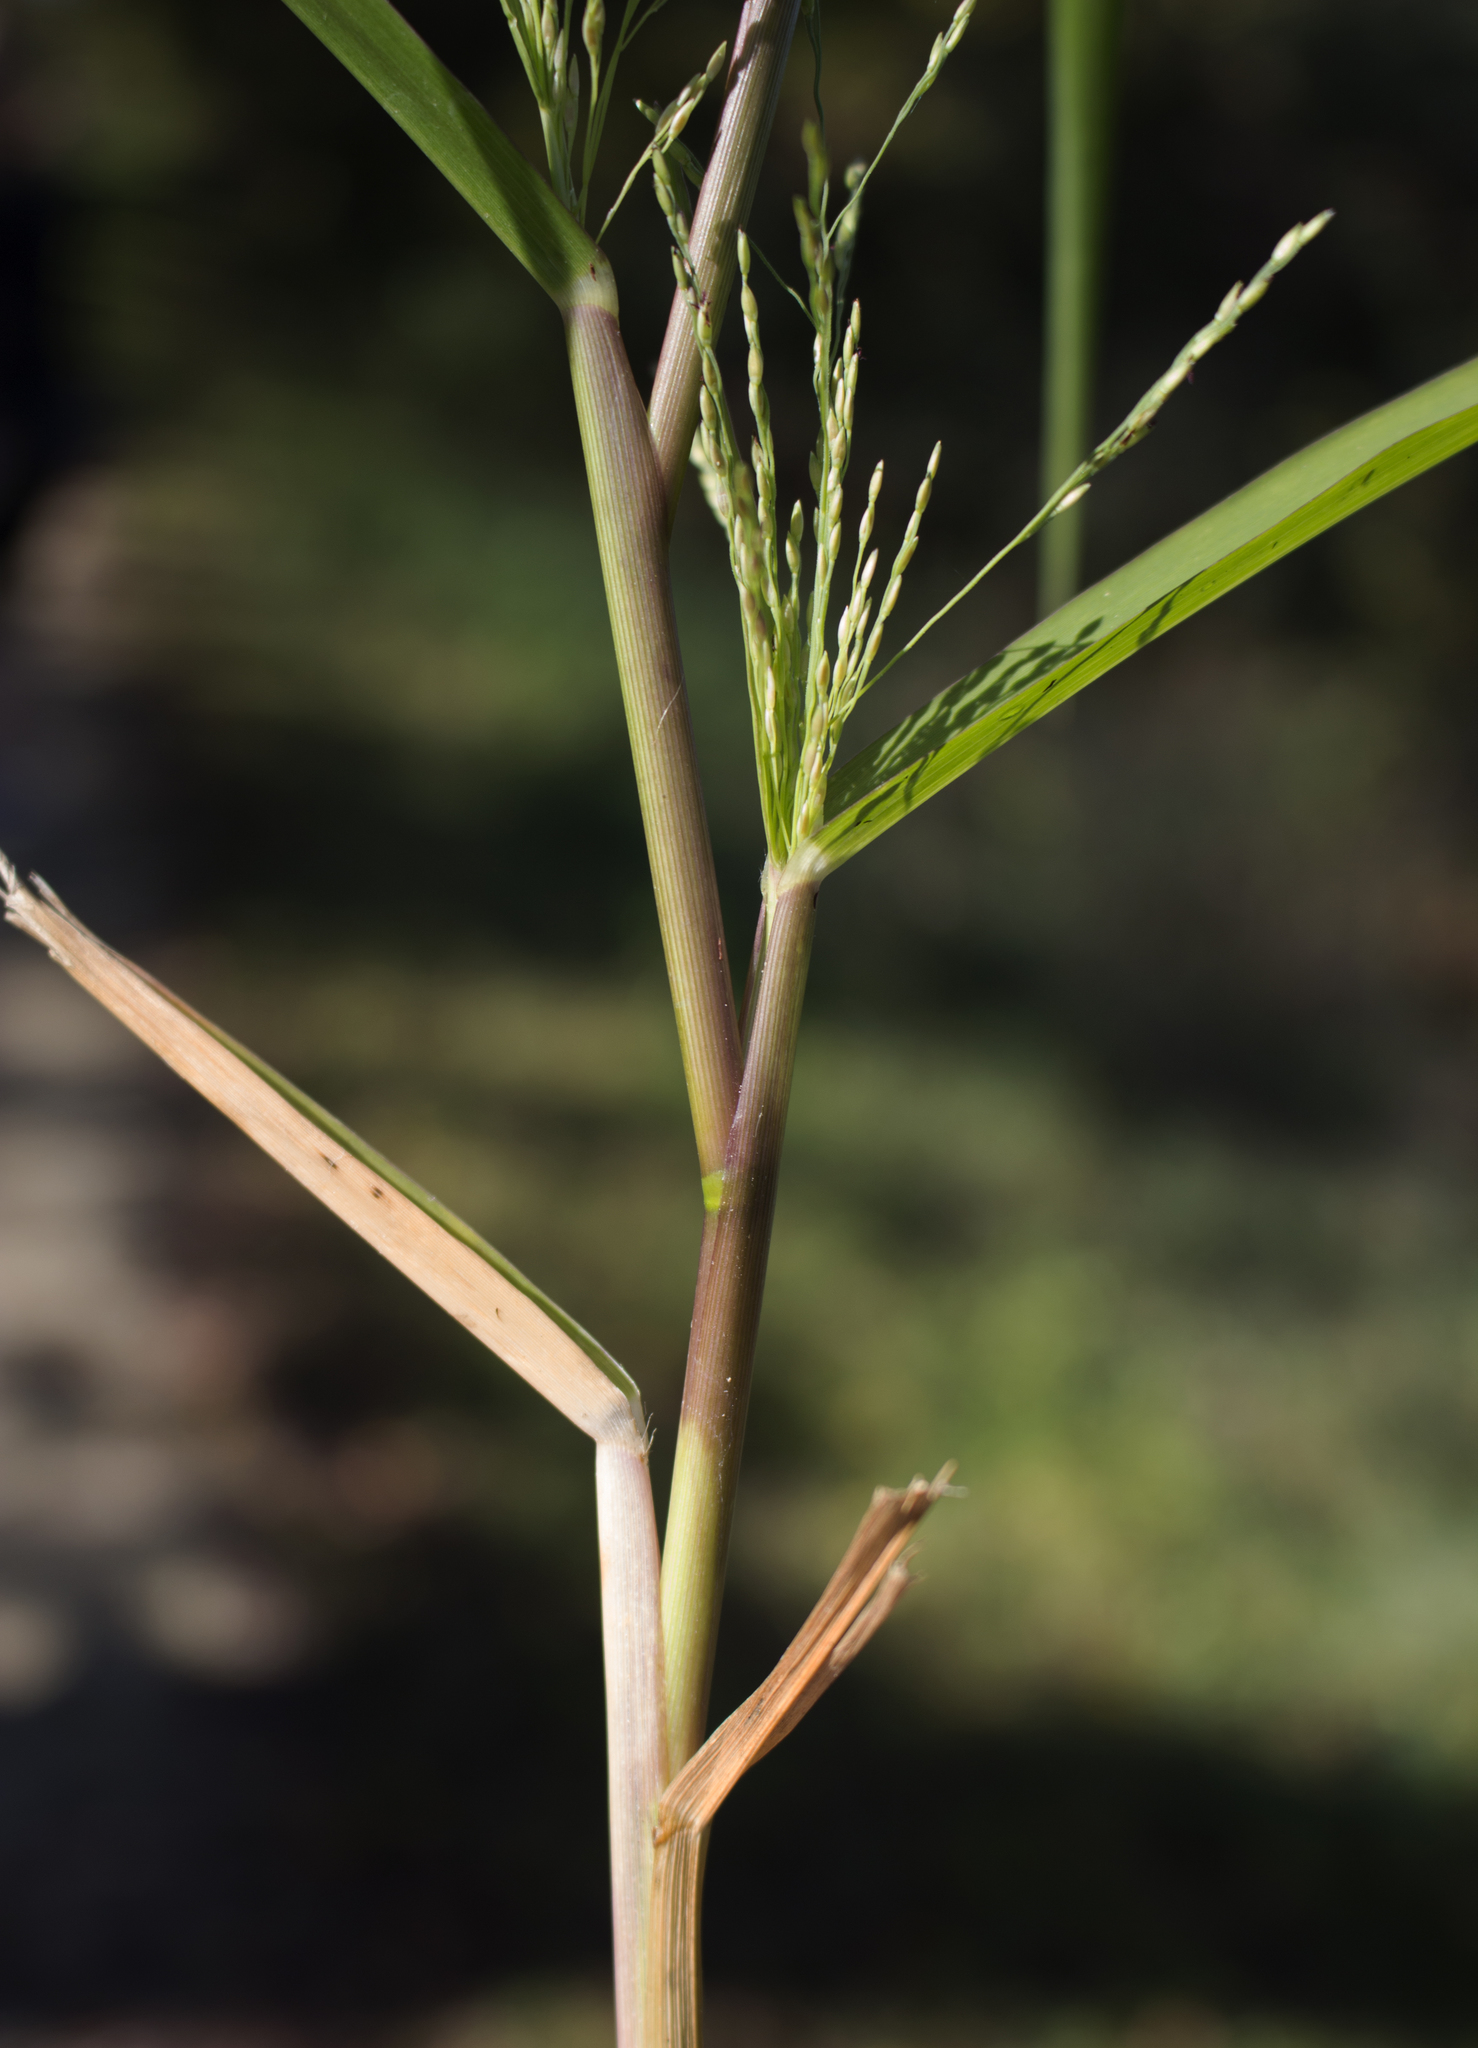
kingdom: Plantae
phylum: Tracheophyta
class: Liliopsida
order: Poales
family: Poaceae
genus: Panicum
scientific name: Panicum dichotomiflorum
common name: Autumn millet
